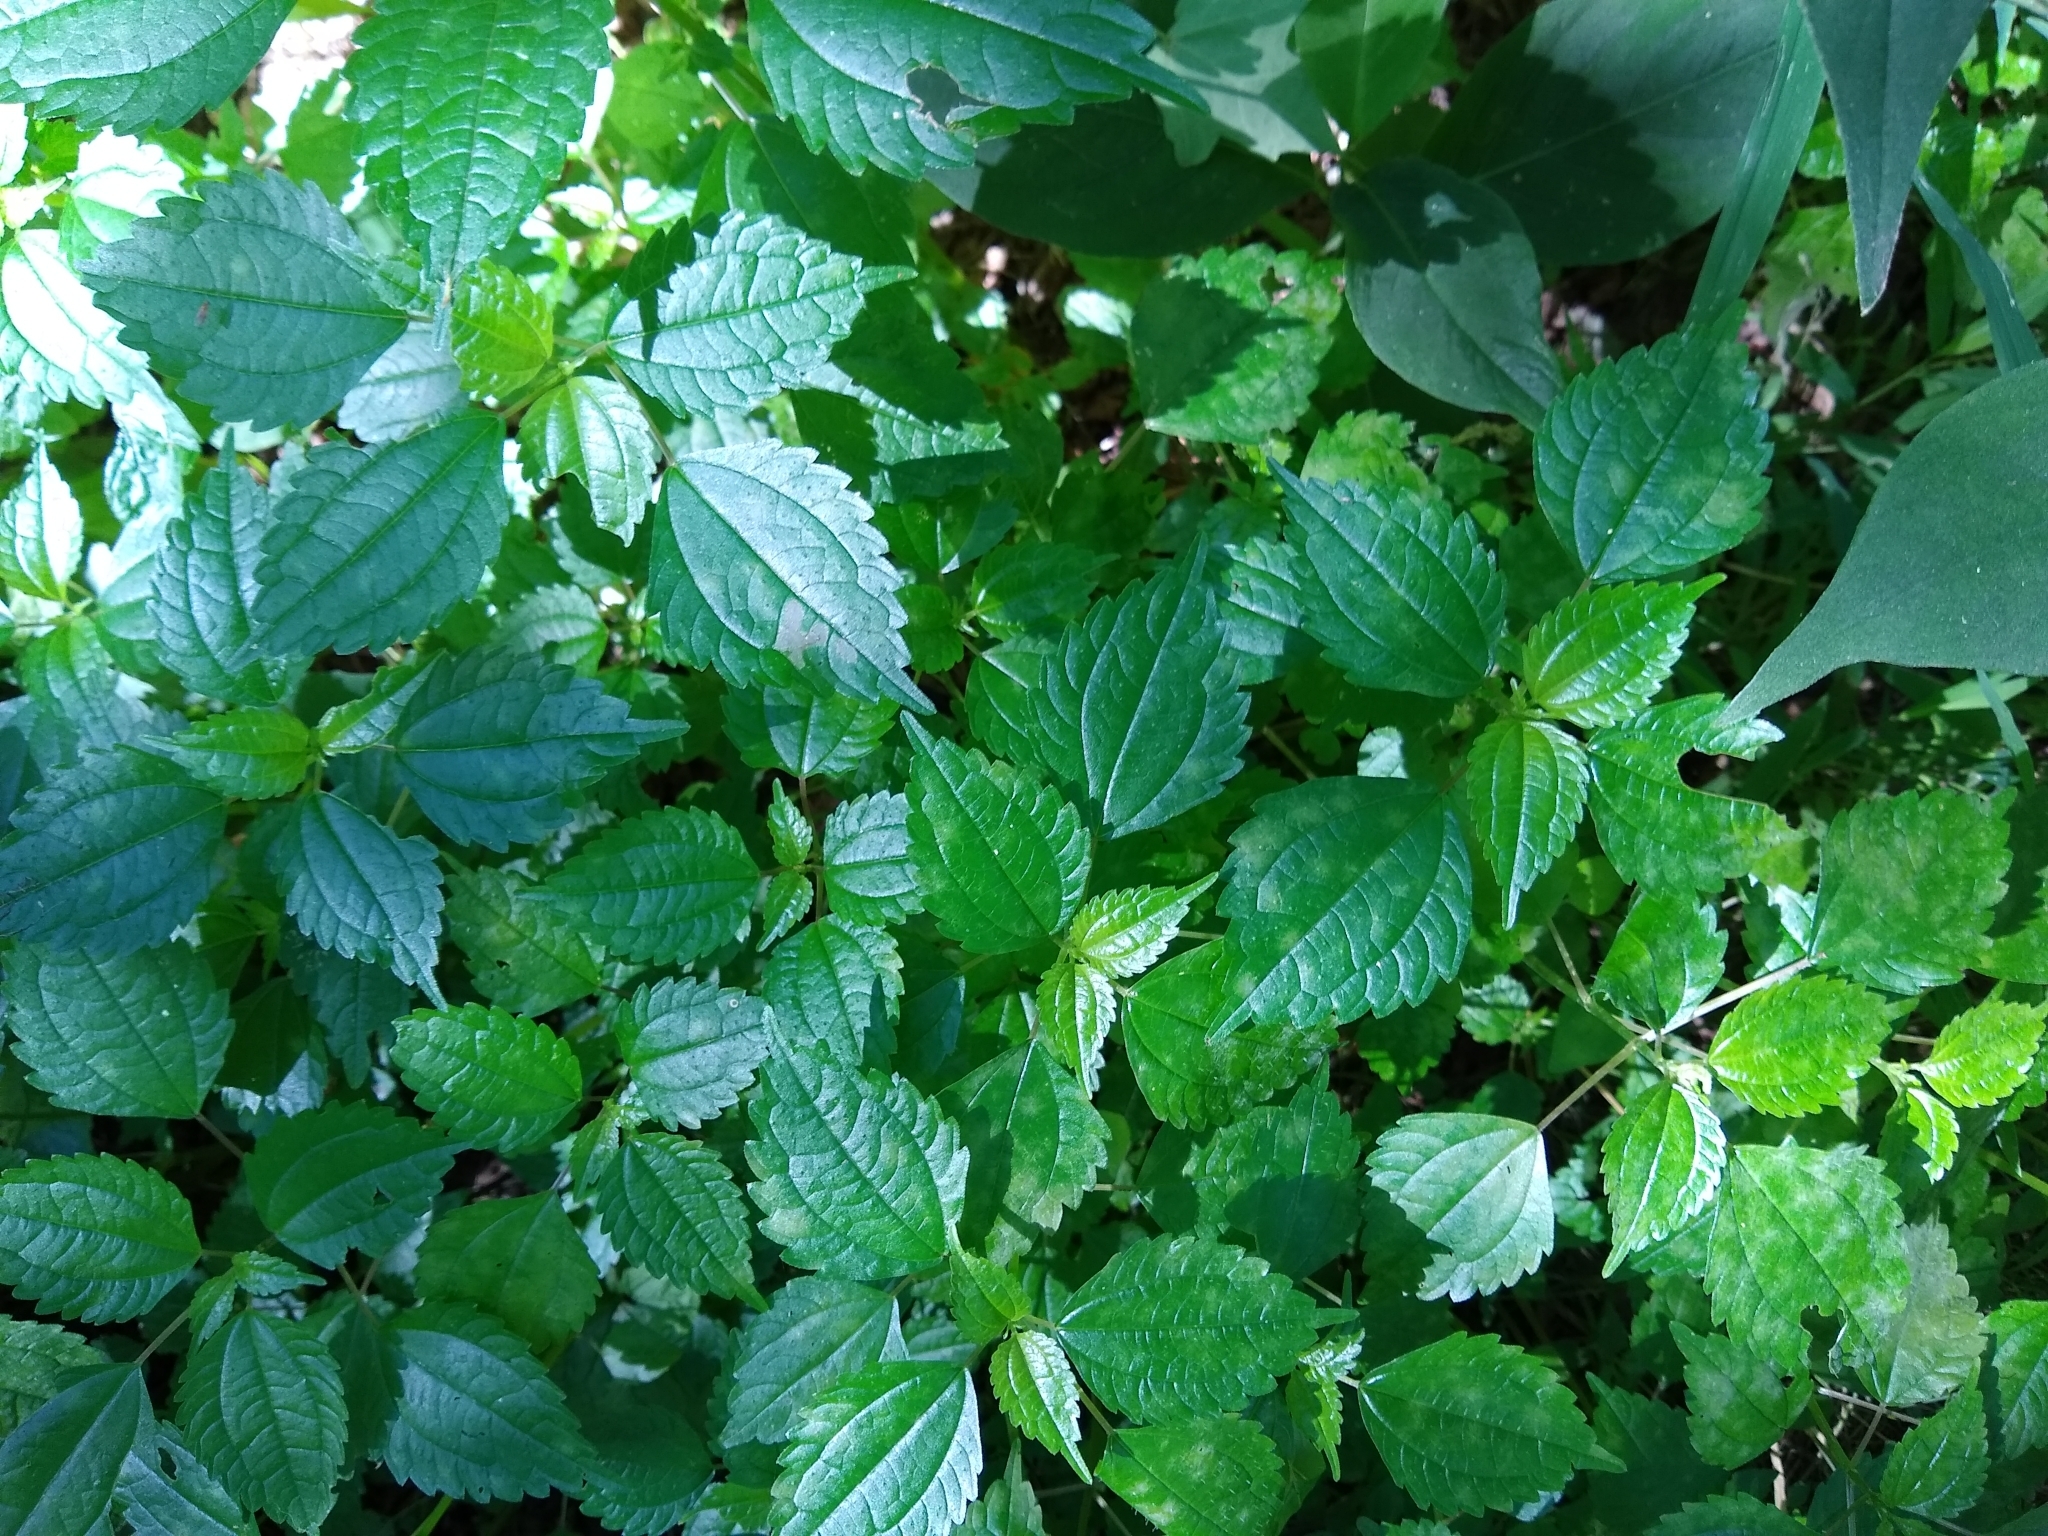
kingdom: Plantae
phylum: Tracheophyta
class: Magnoliopsida
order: Rosales
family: Urticaceae
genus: Pilea
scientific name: Pilea pumila
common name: Clearweed
